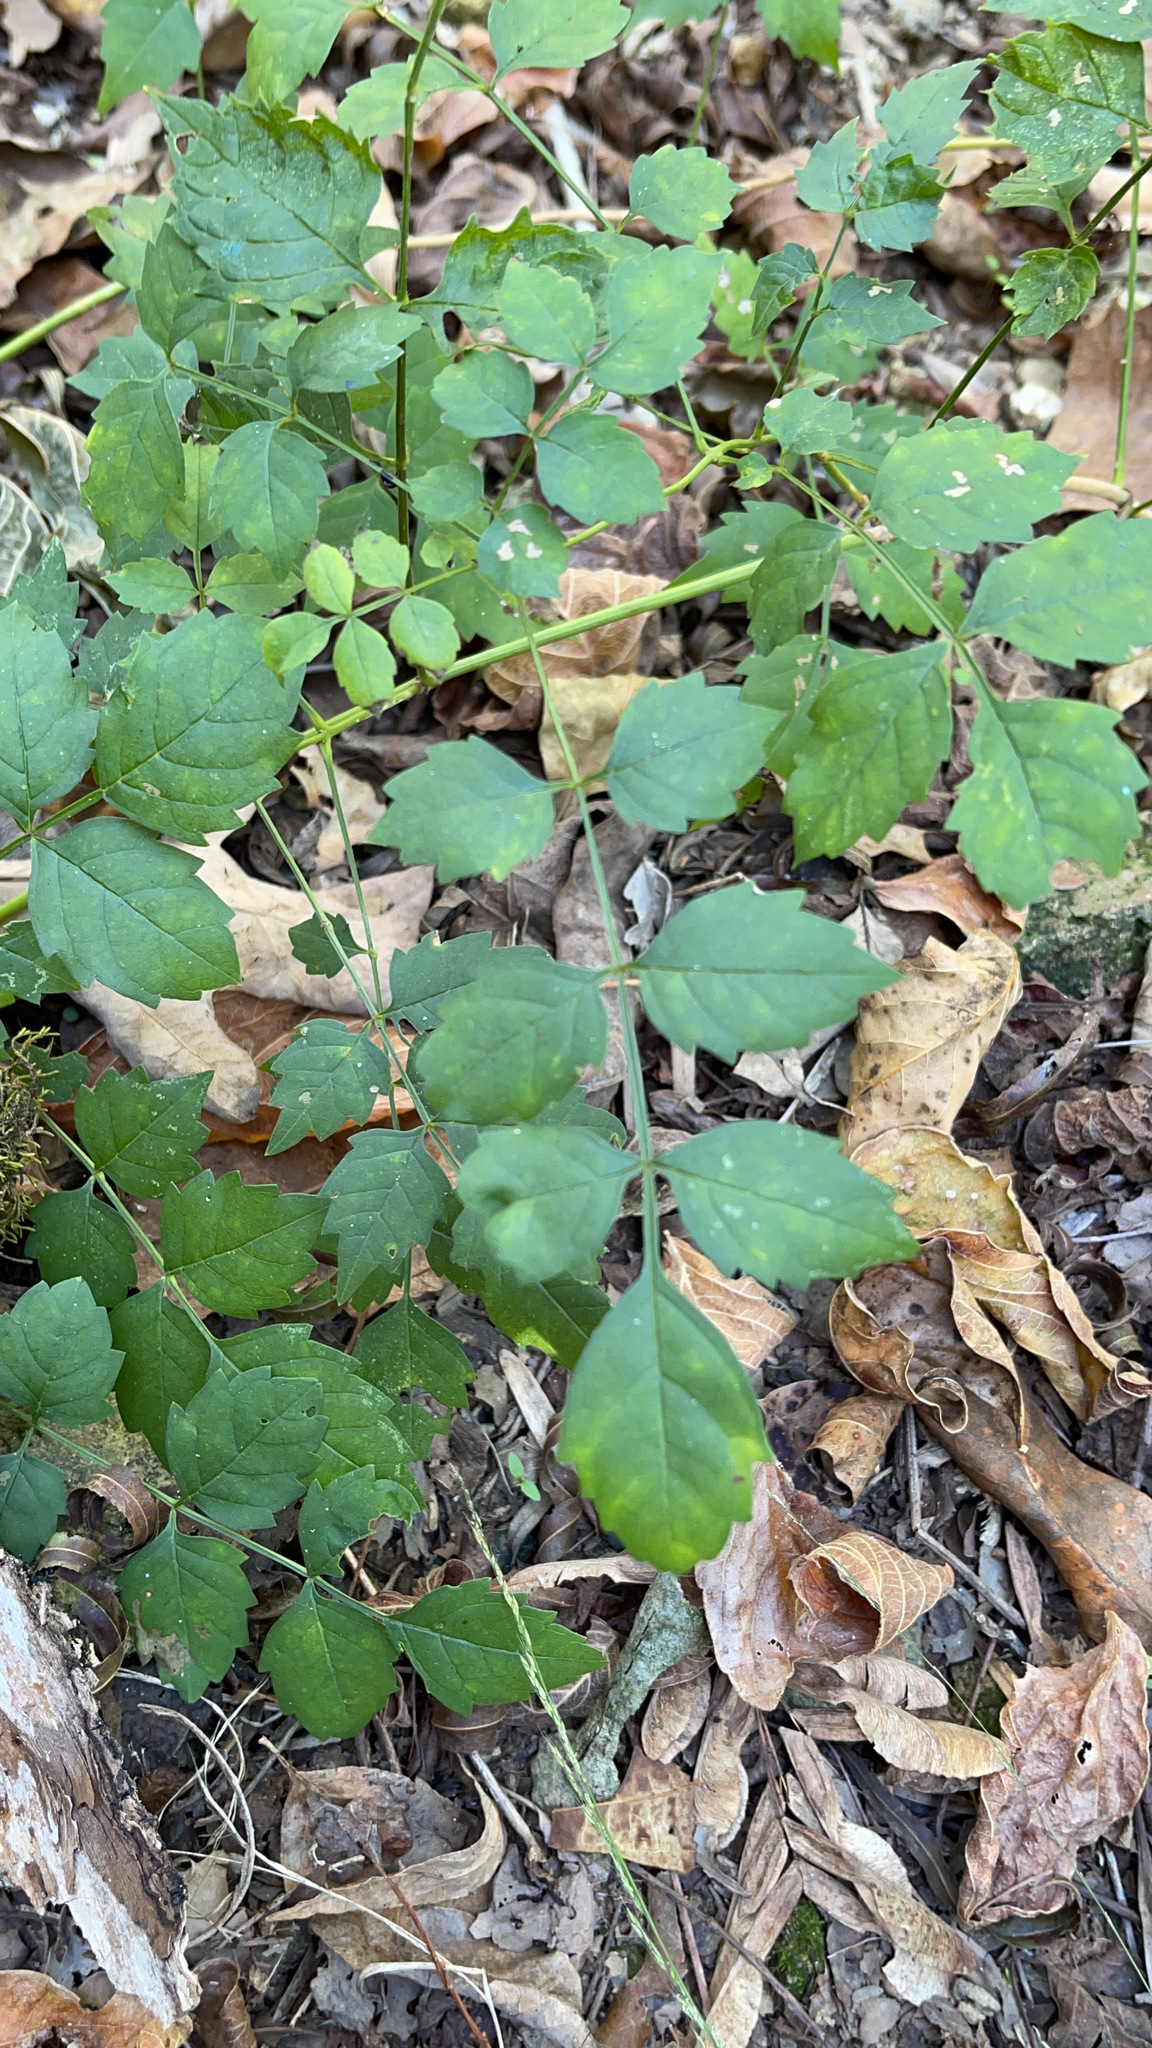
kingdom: Plantae
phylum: Tracheophyta
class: Magnoliopsida
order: Lamiales
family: Bignoniaceae
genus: Campsis
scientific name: Campsis radicans
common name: Trumpet-creeper
